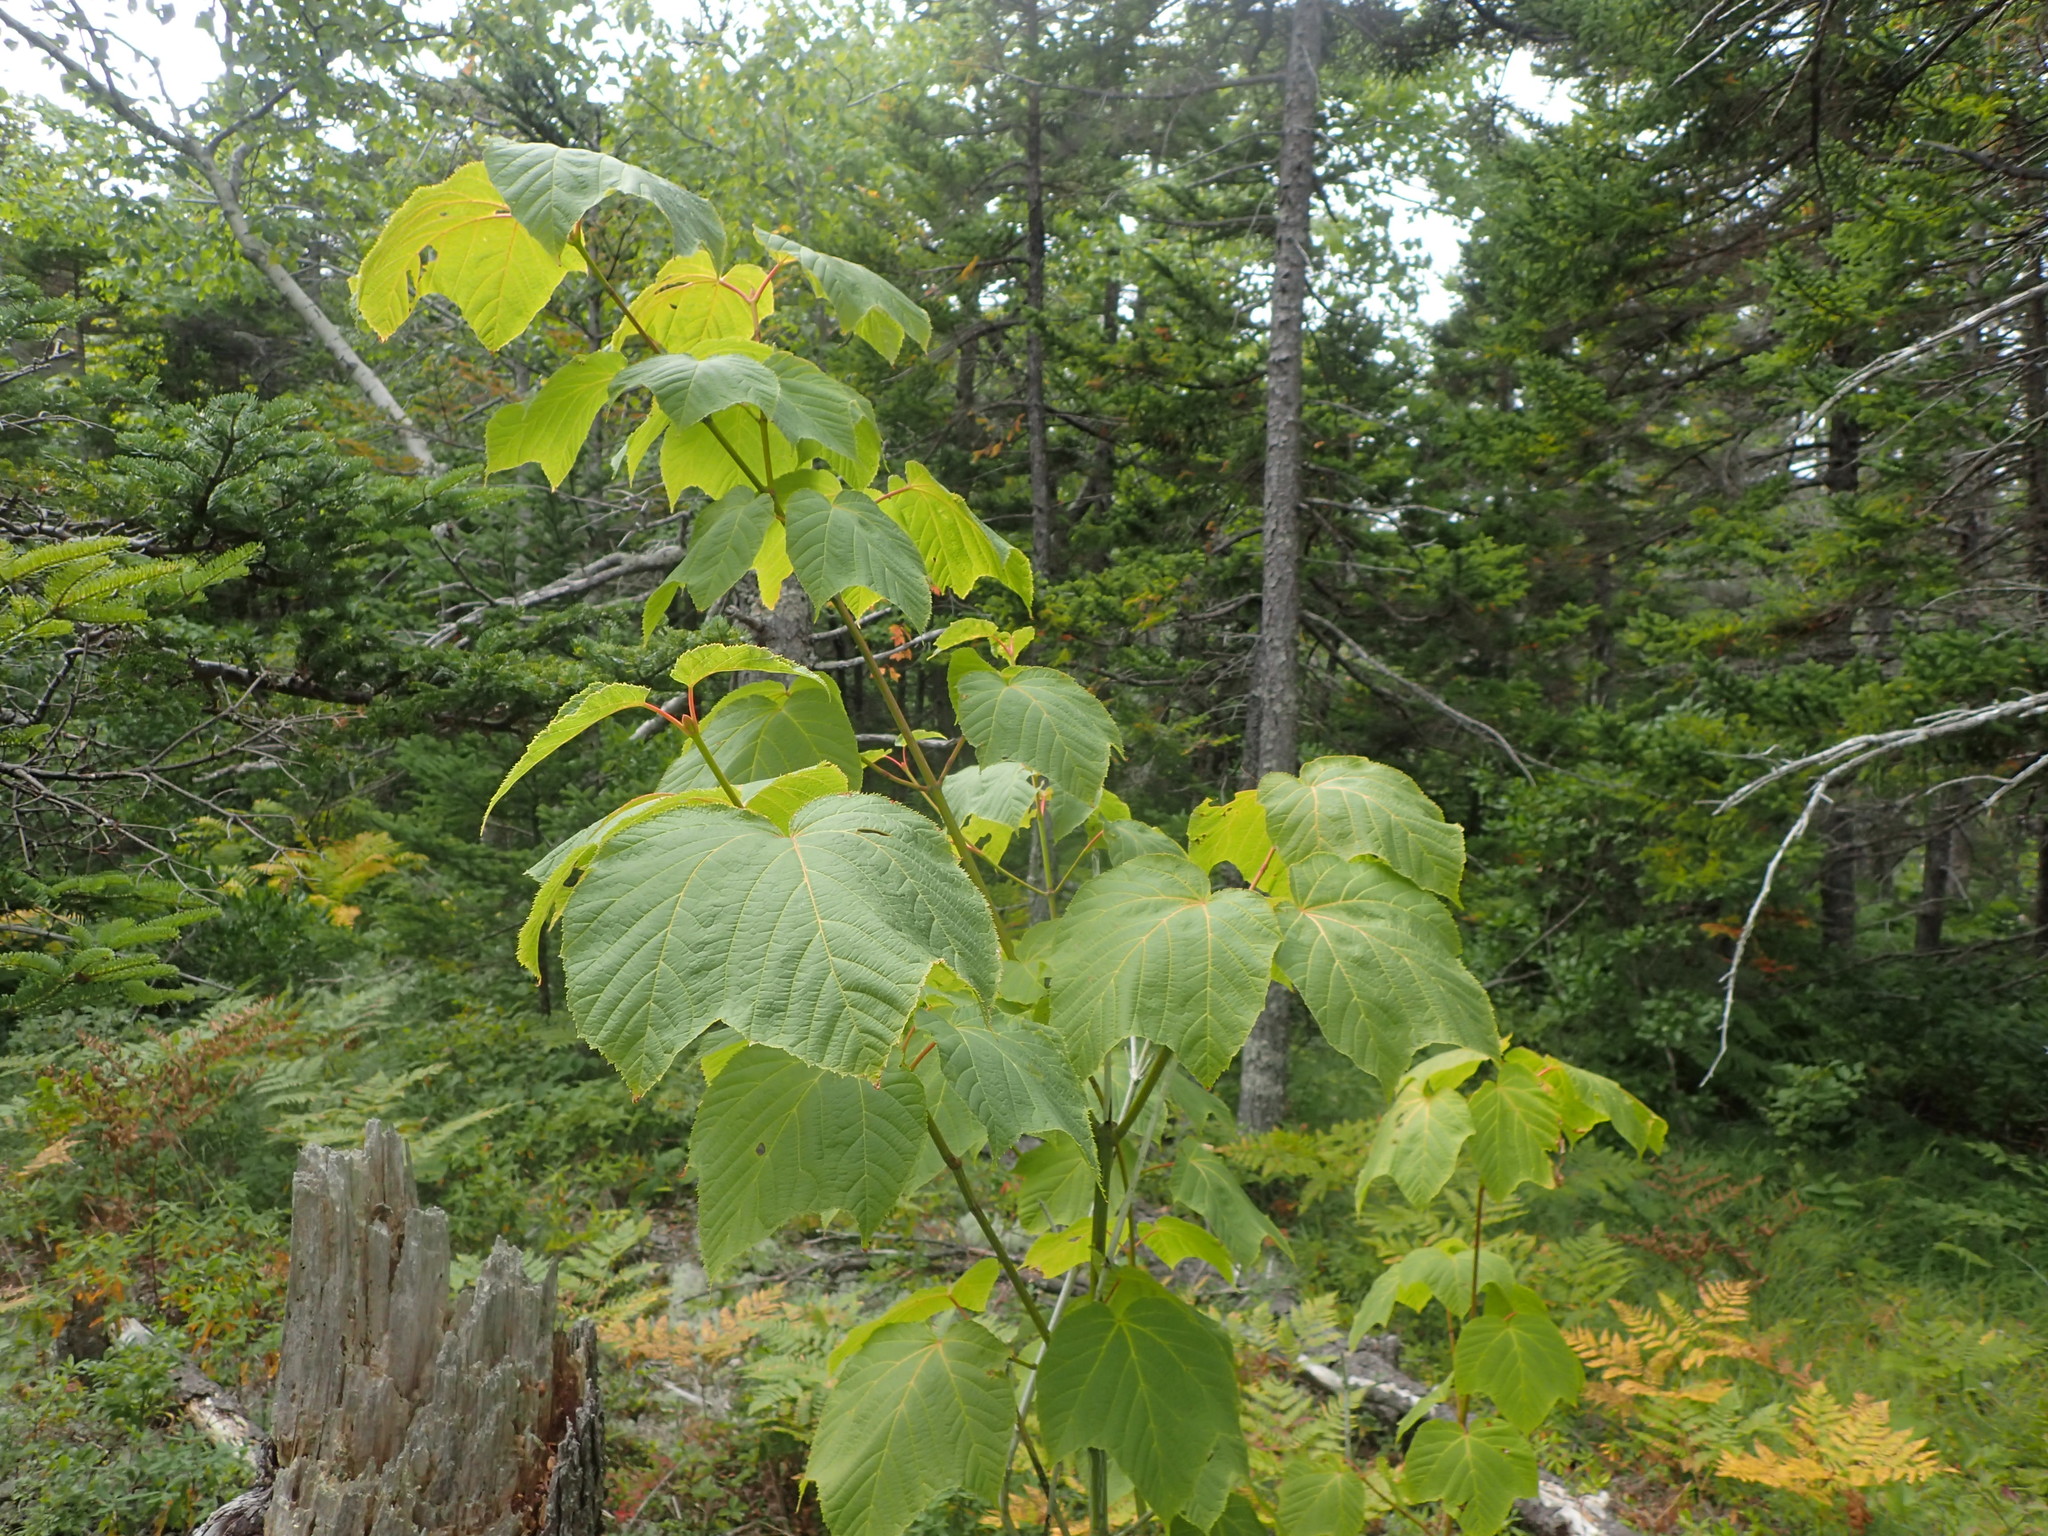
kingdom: Plantae
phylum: Tracheophyta
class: Magnoliopsida
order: Sapindales
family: Sapindaceae
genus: Acer
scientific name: Acer pensylvanicum
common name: Moosewood
